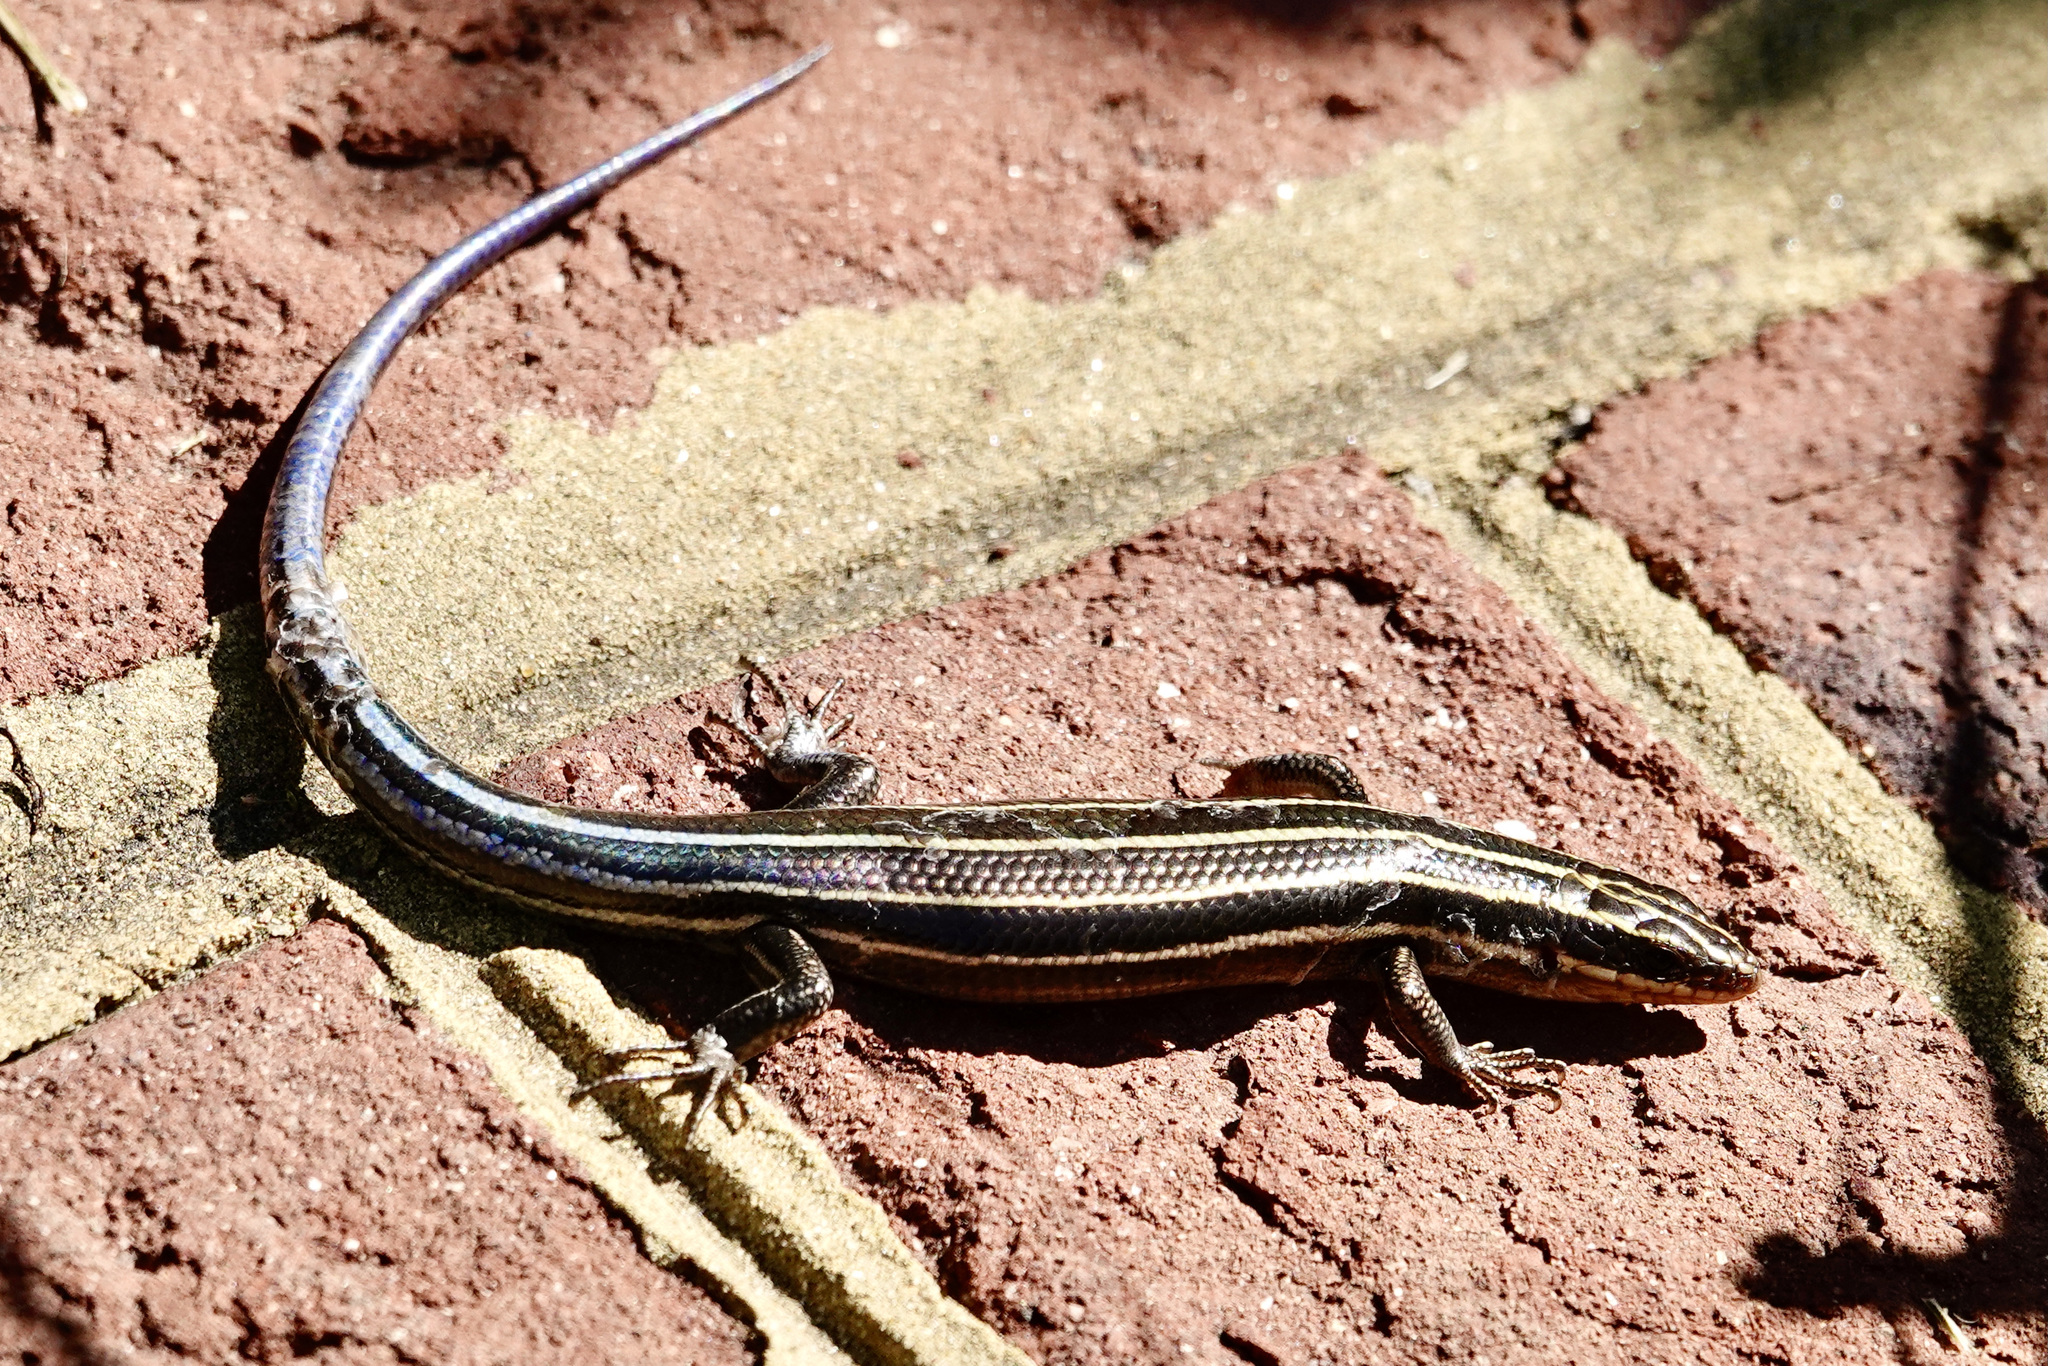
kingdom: Animalia
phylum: Chordata
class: Squamata
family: Scincidae
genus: Plestiodon
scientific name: Plestiodon fasciatus
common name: Five-lined skink
